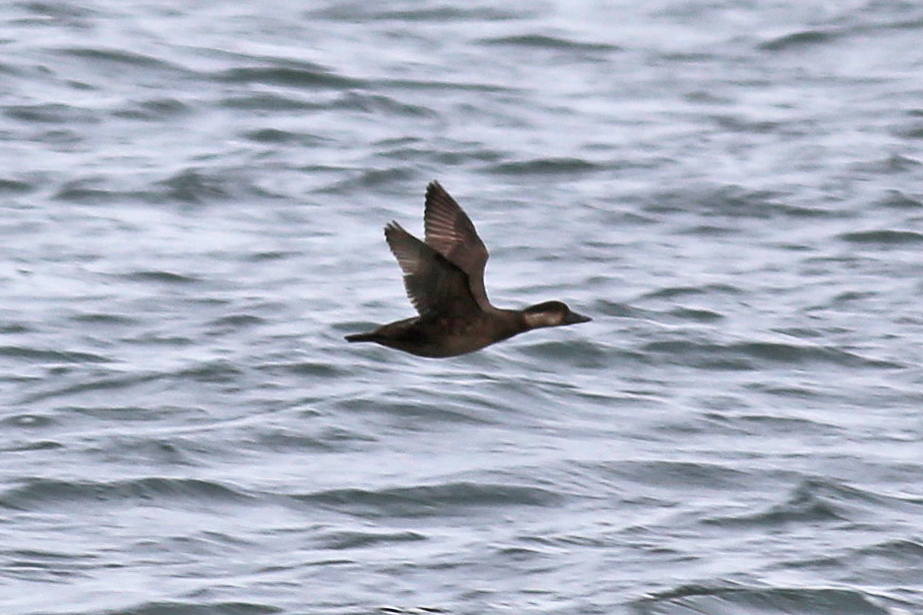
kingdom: Animalia
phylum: Chordata
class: Aves
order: Anseriformes
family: Anatidae
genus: Melanitta
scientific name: Melanitta americana
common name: Black scoter
